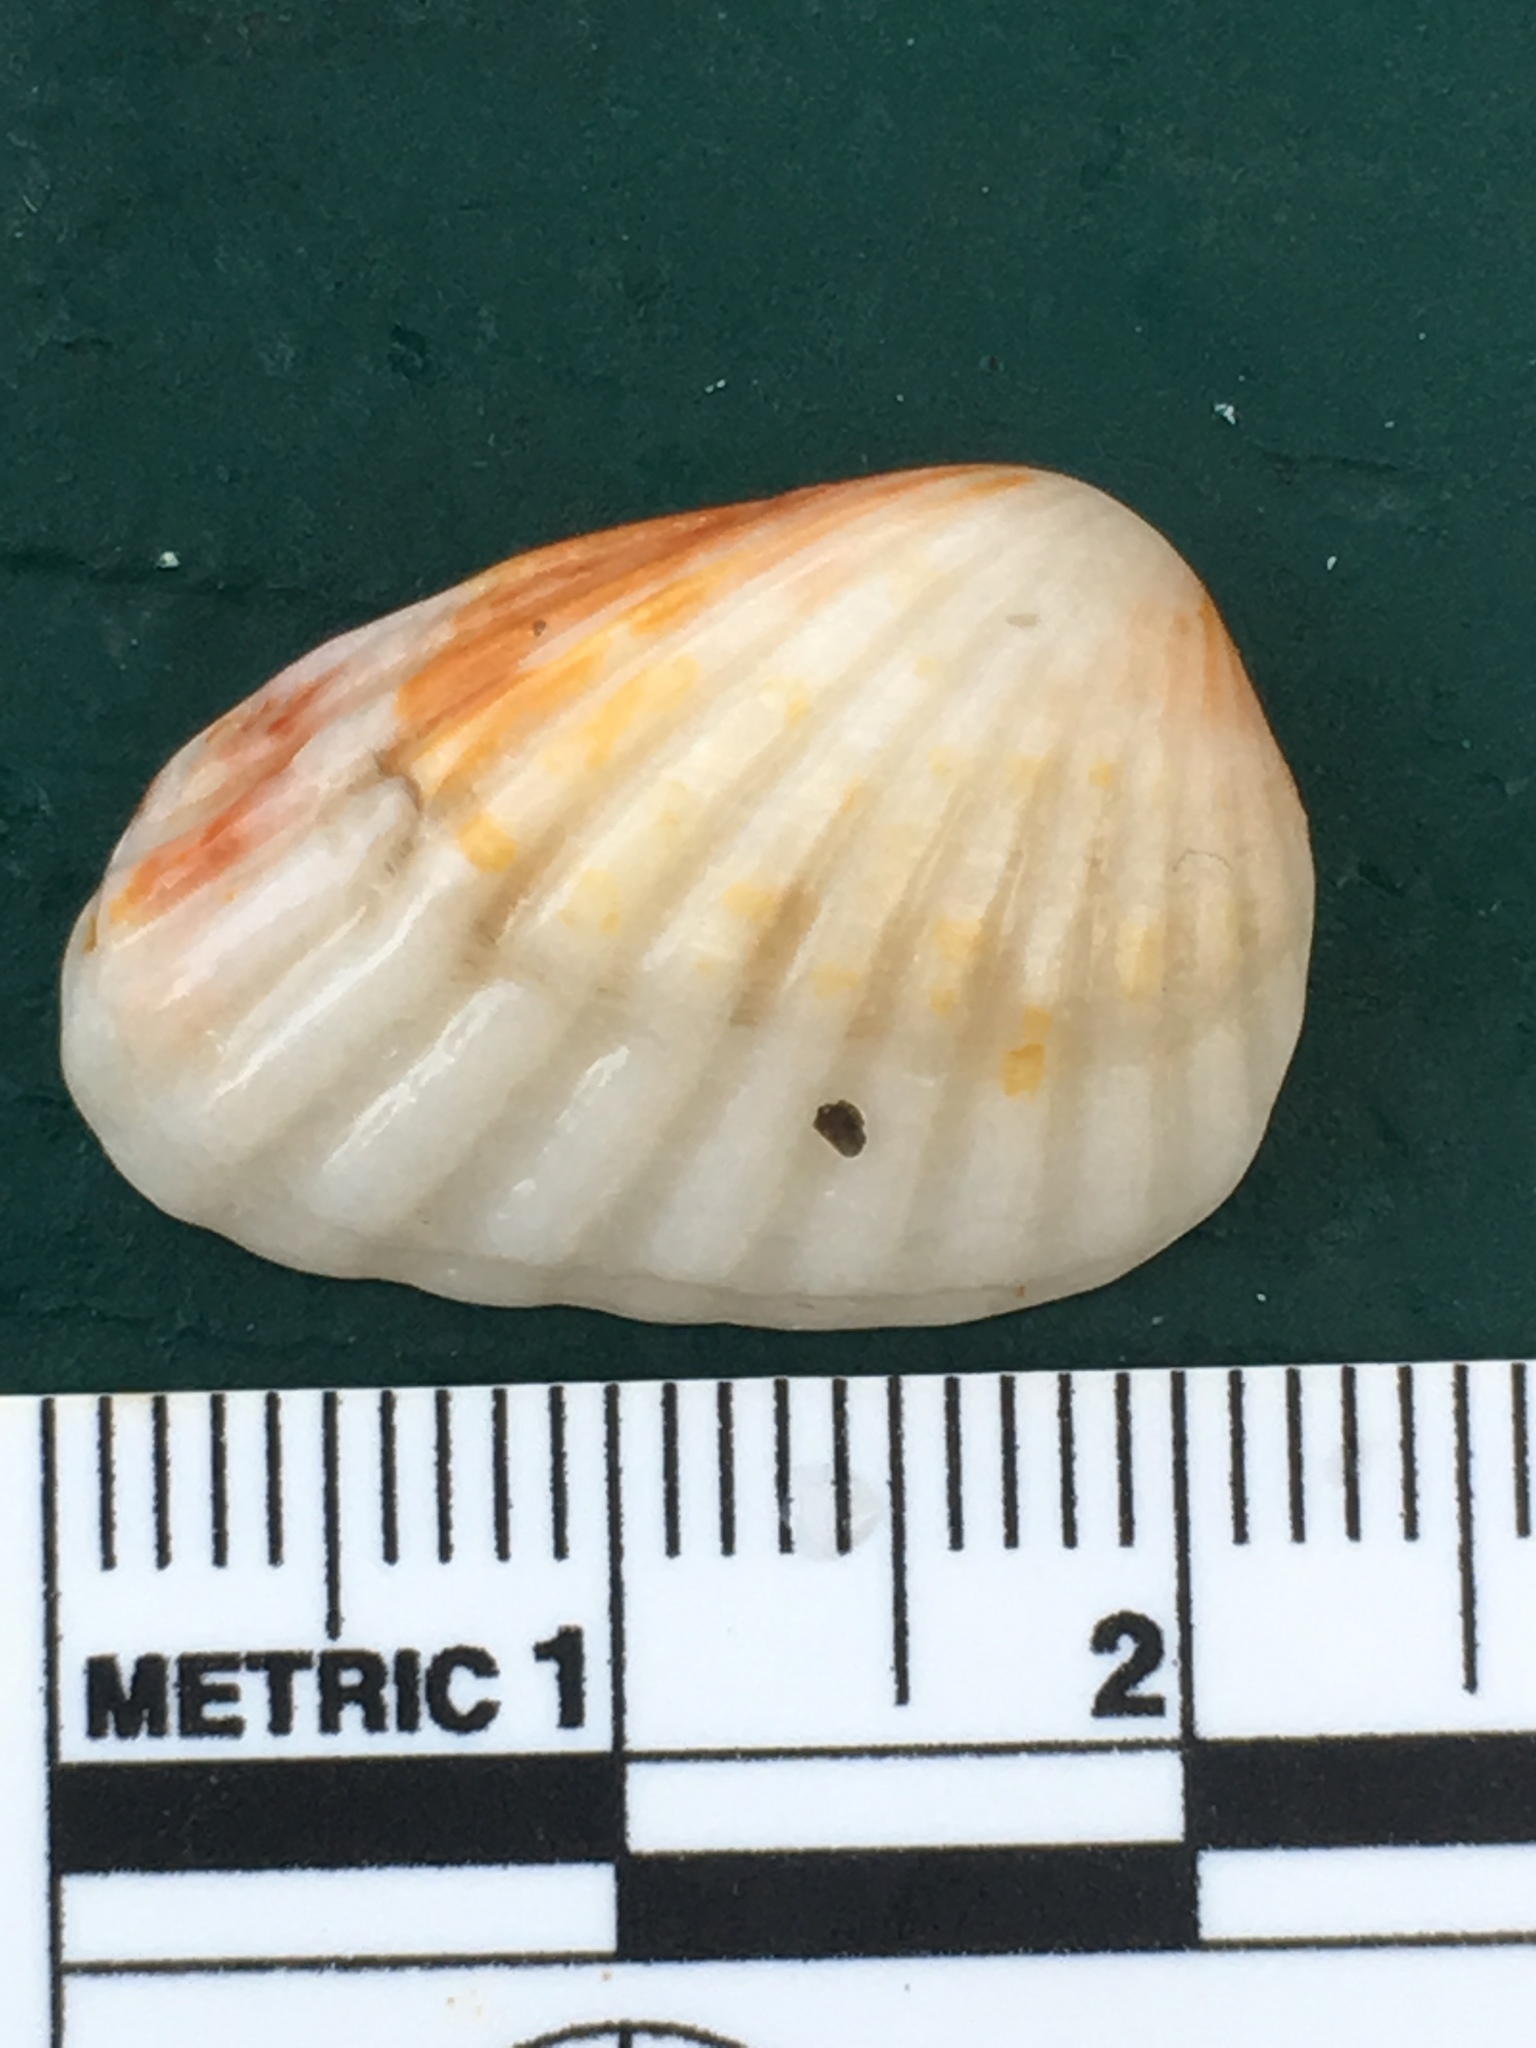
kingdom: Animalia
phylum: Mollusca
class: Bivalvia
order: Carditida
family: Carditidae
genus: Cardites
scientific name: Cardites floridanus
